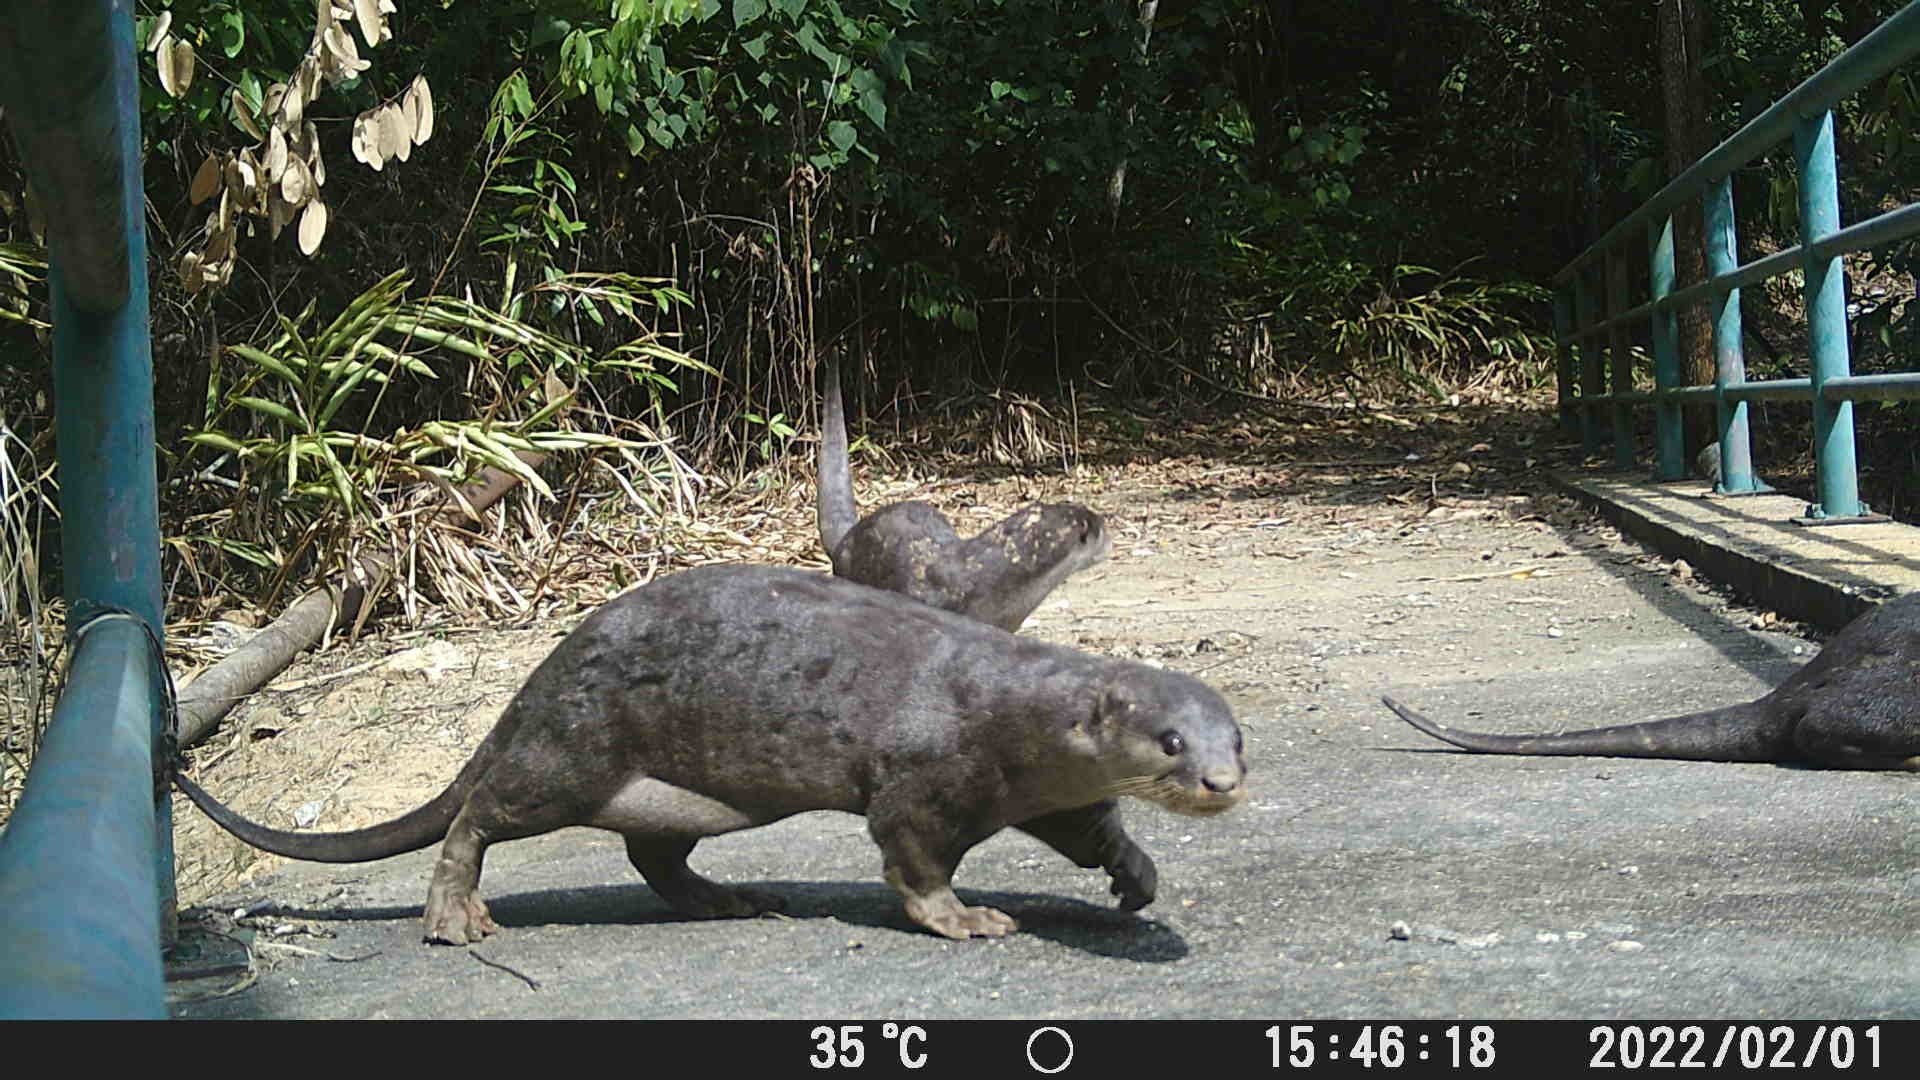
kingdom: Animalia
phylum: Chordata
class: Mammalia
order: Carnivora
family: Mustelidae
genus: Lutrogale
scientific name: Lutrogale perspicillata
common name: Smooth-coated otter
